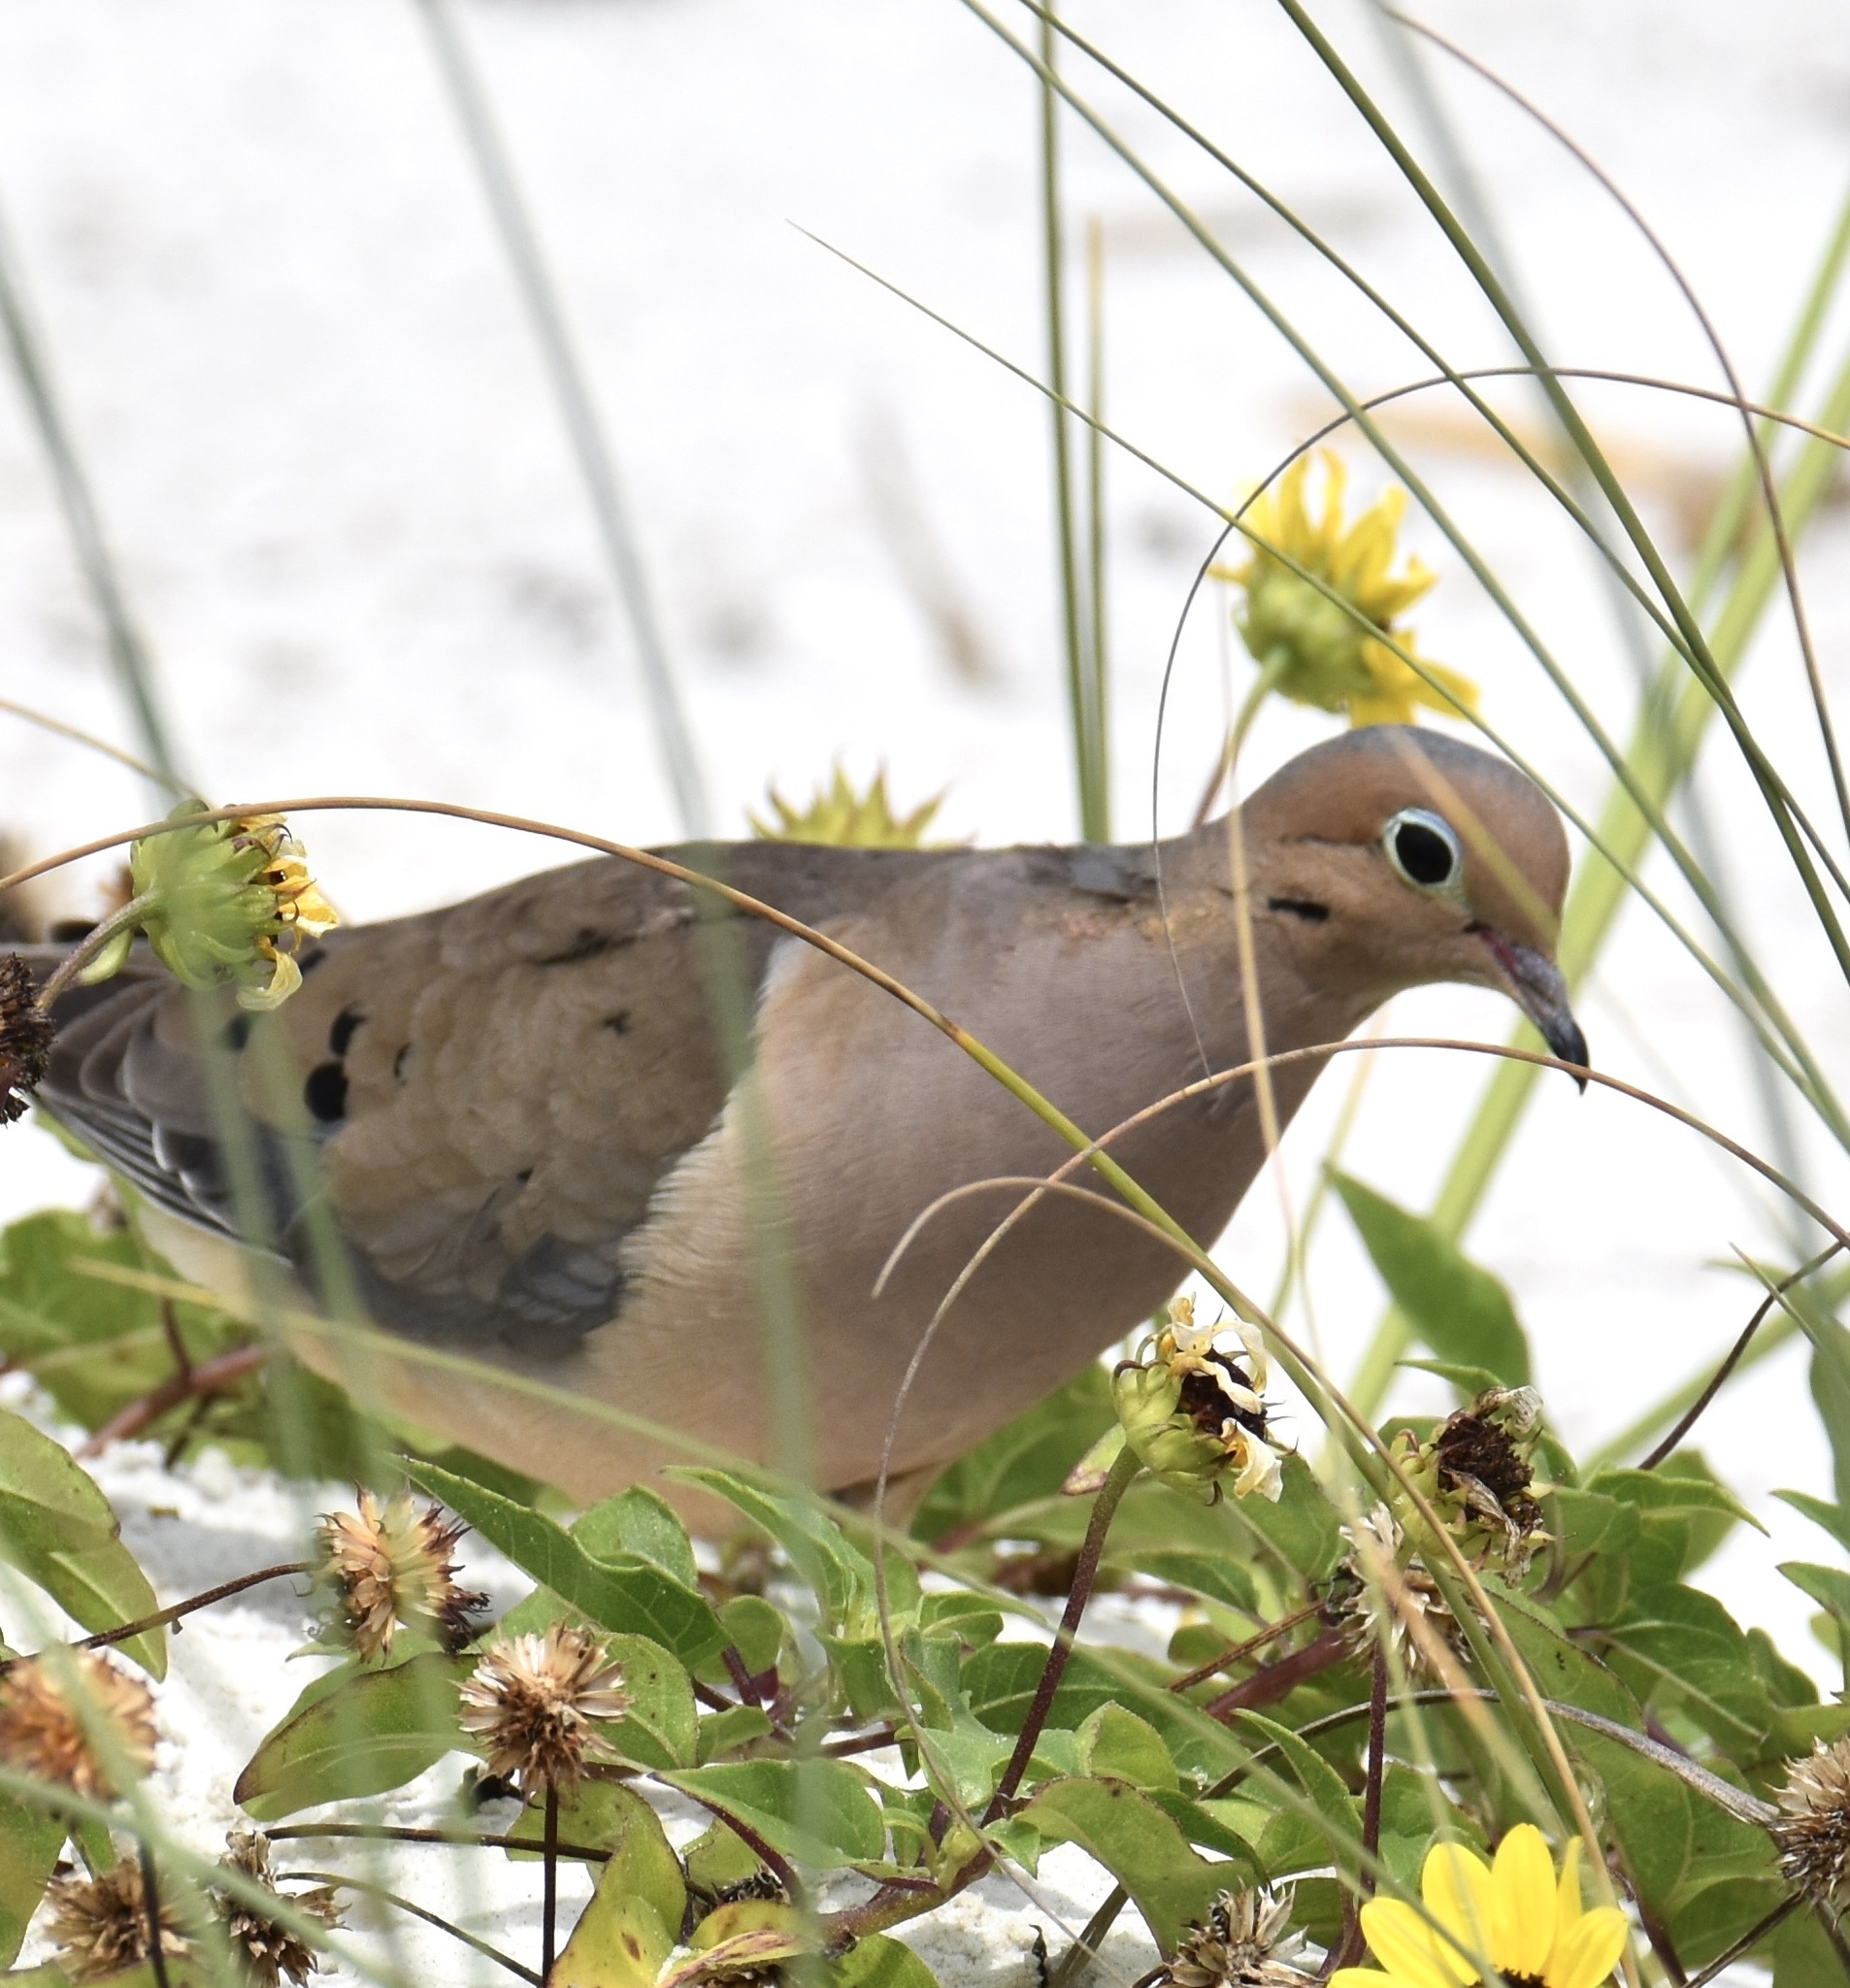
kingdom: Animalia
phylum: Chordata
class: Aves
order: Columbiformes
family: Columbidae
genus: Zenaida
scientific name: Zenaida macroura
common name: Mourning dove
